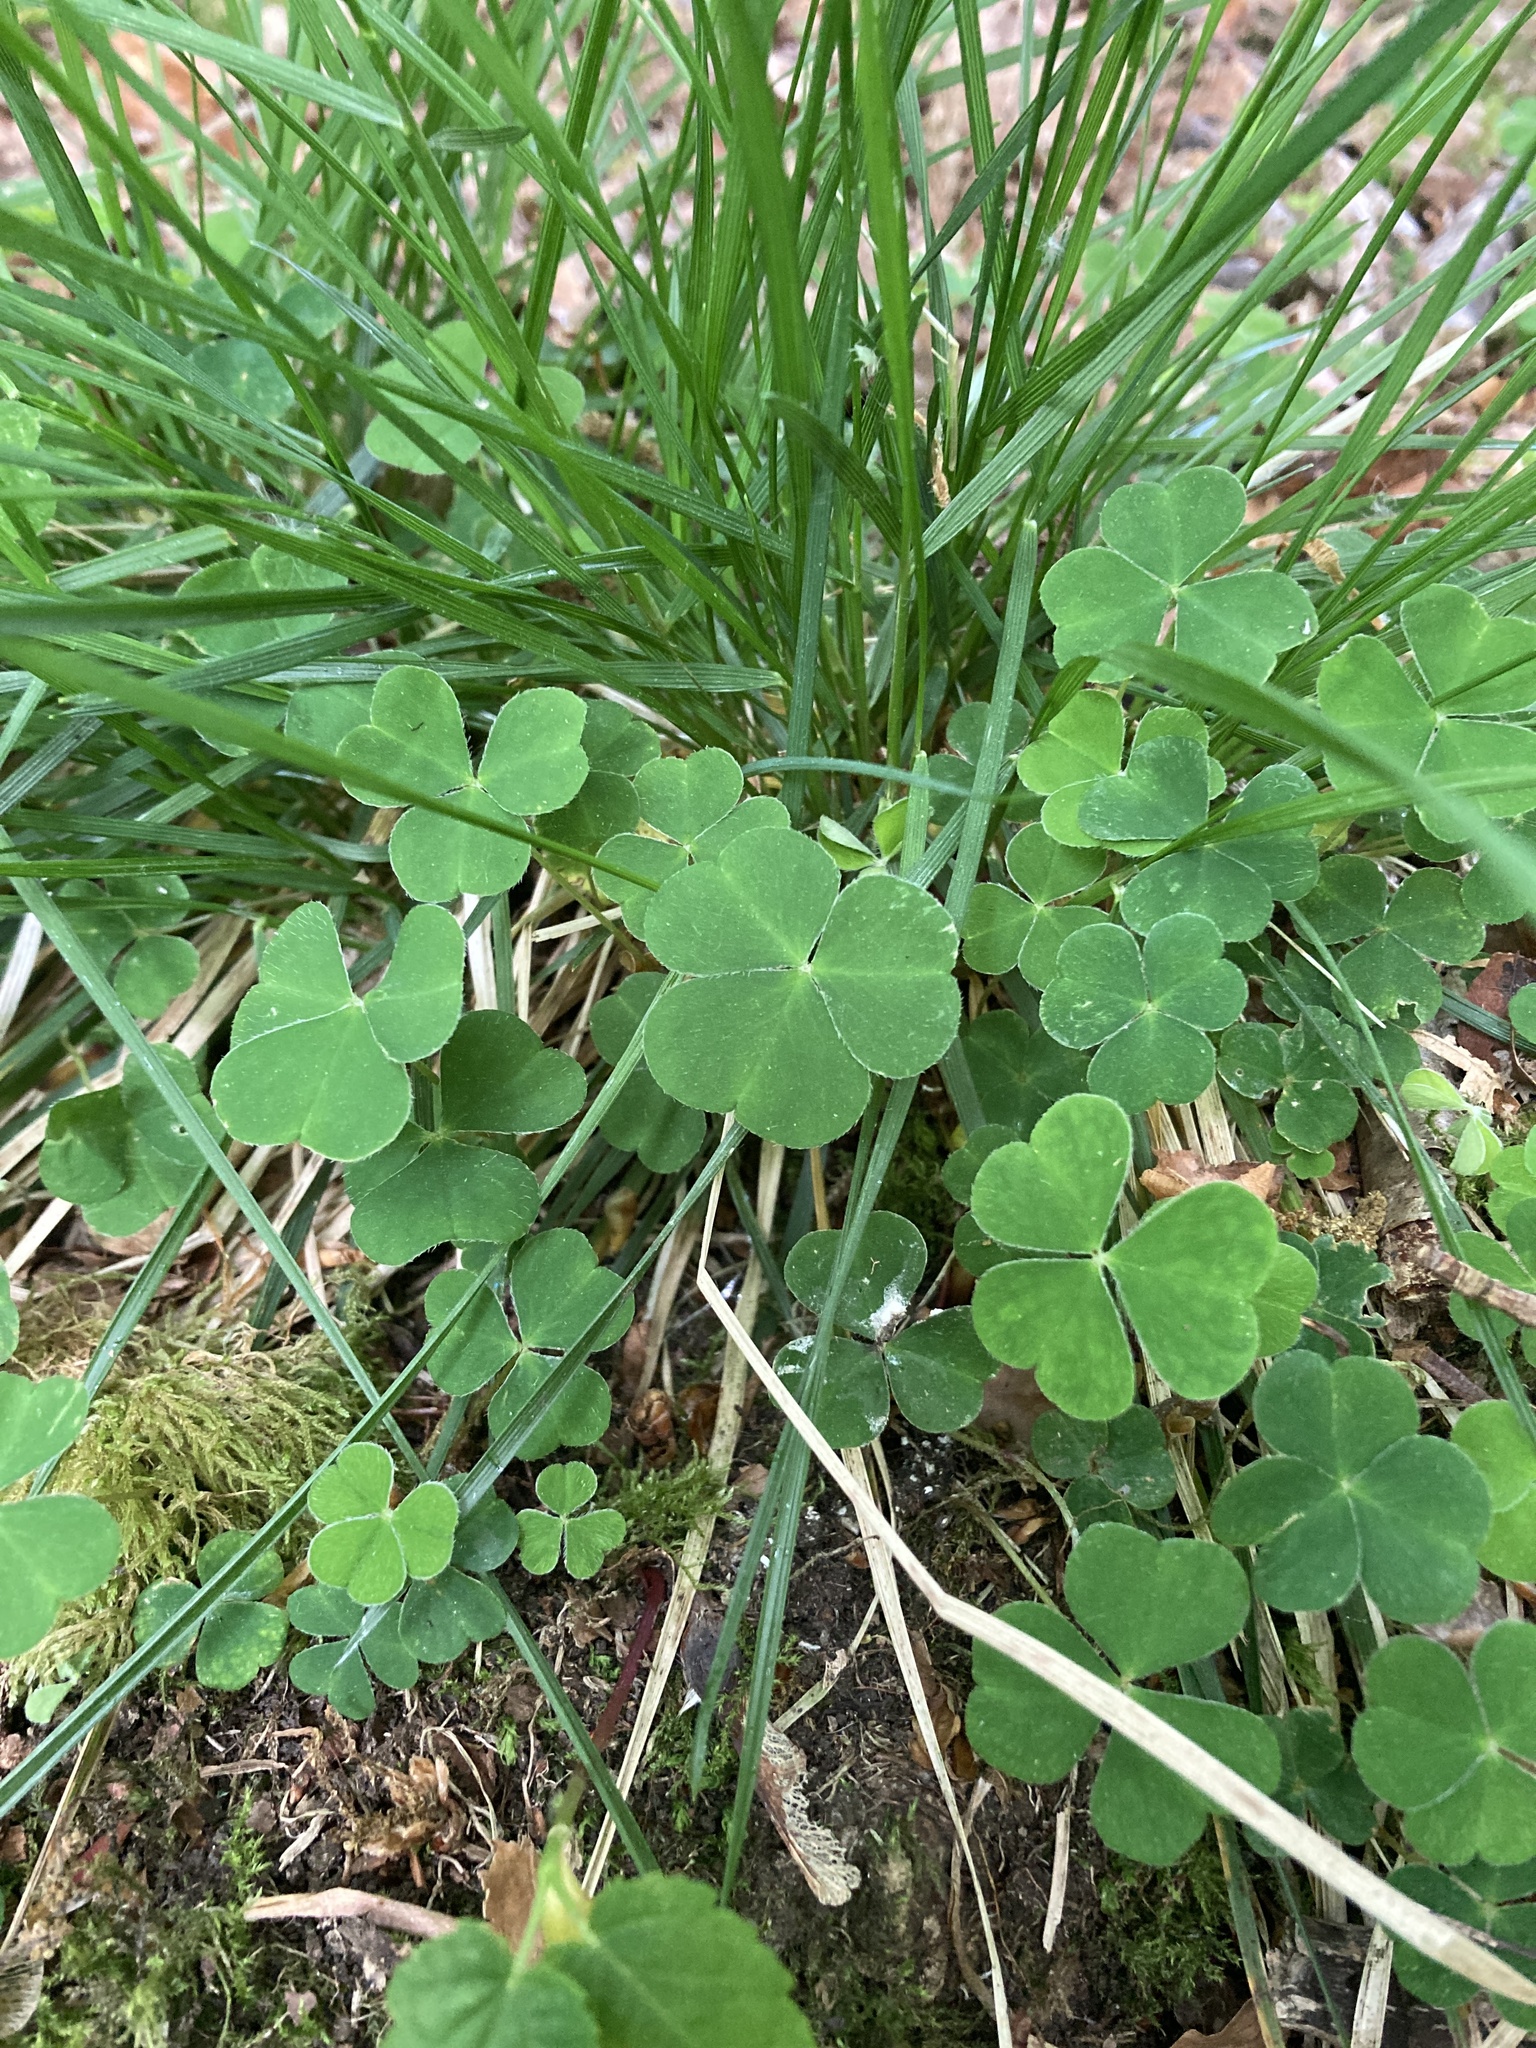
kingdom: Plantae
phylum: Tracheophyta
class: Magnoliopsida
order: Oxalidales
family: Oxalidaceae
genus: Oxalis
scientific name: Oxalis acetosella
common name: Wood-sorrel
